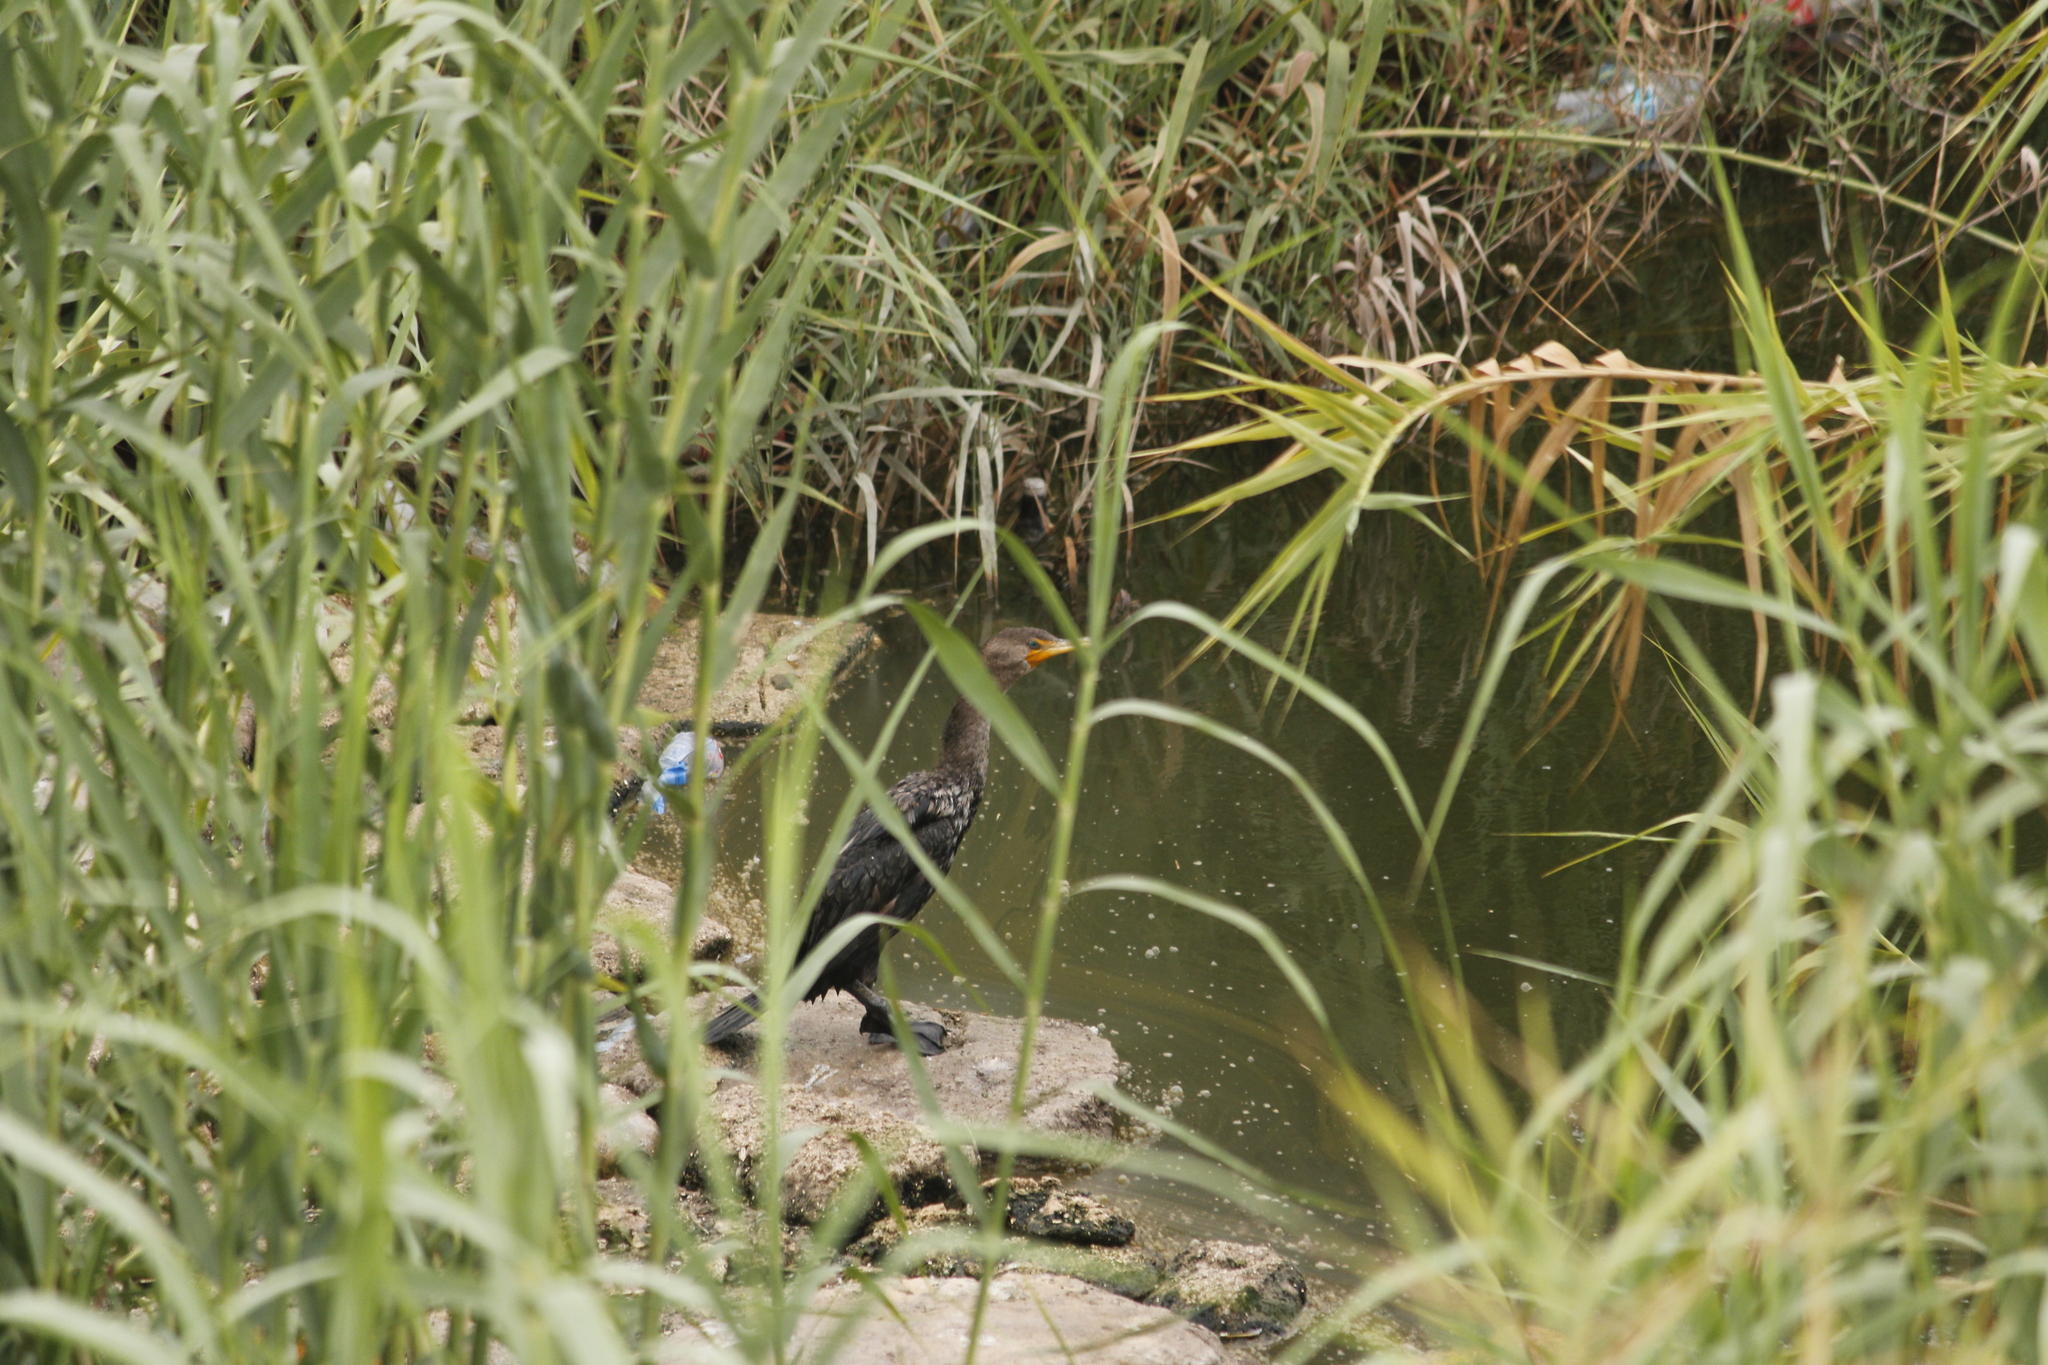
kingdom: Animalia
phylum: Chordata
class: Aves
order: Suliformes
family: Phalacrocoracidae
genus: Phalacrocorax
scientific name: Phalacrocorax auritus
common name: Double-crested cormorant
